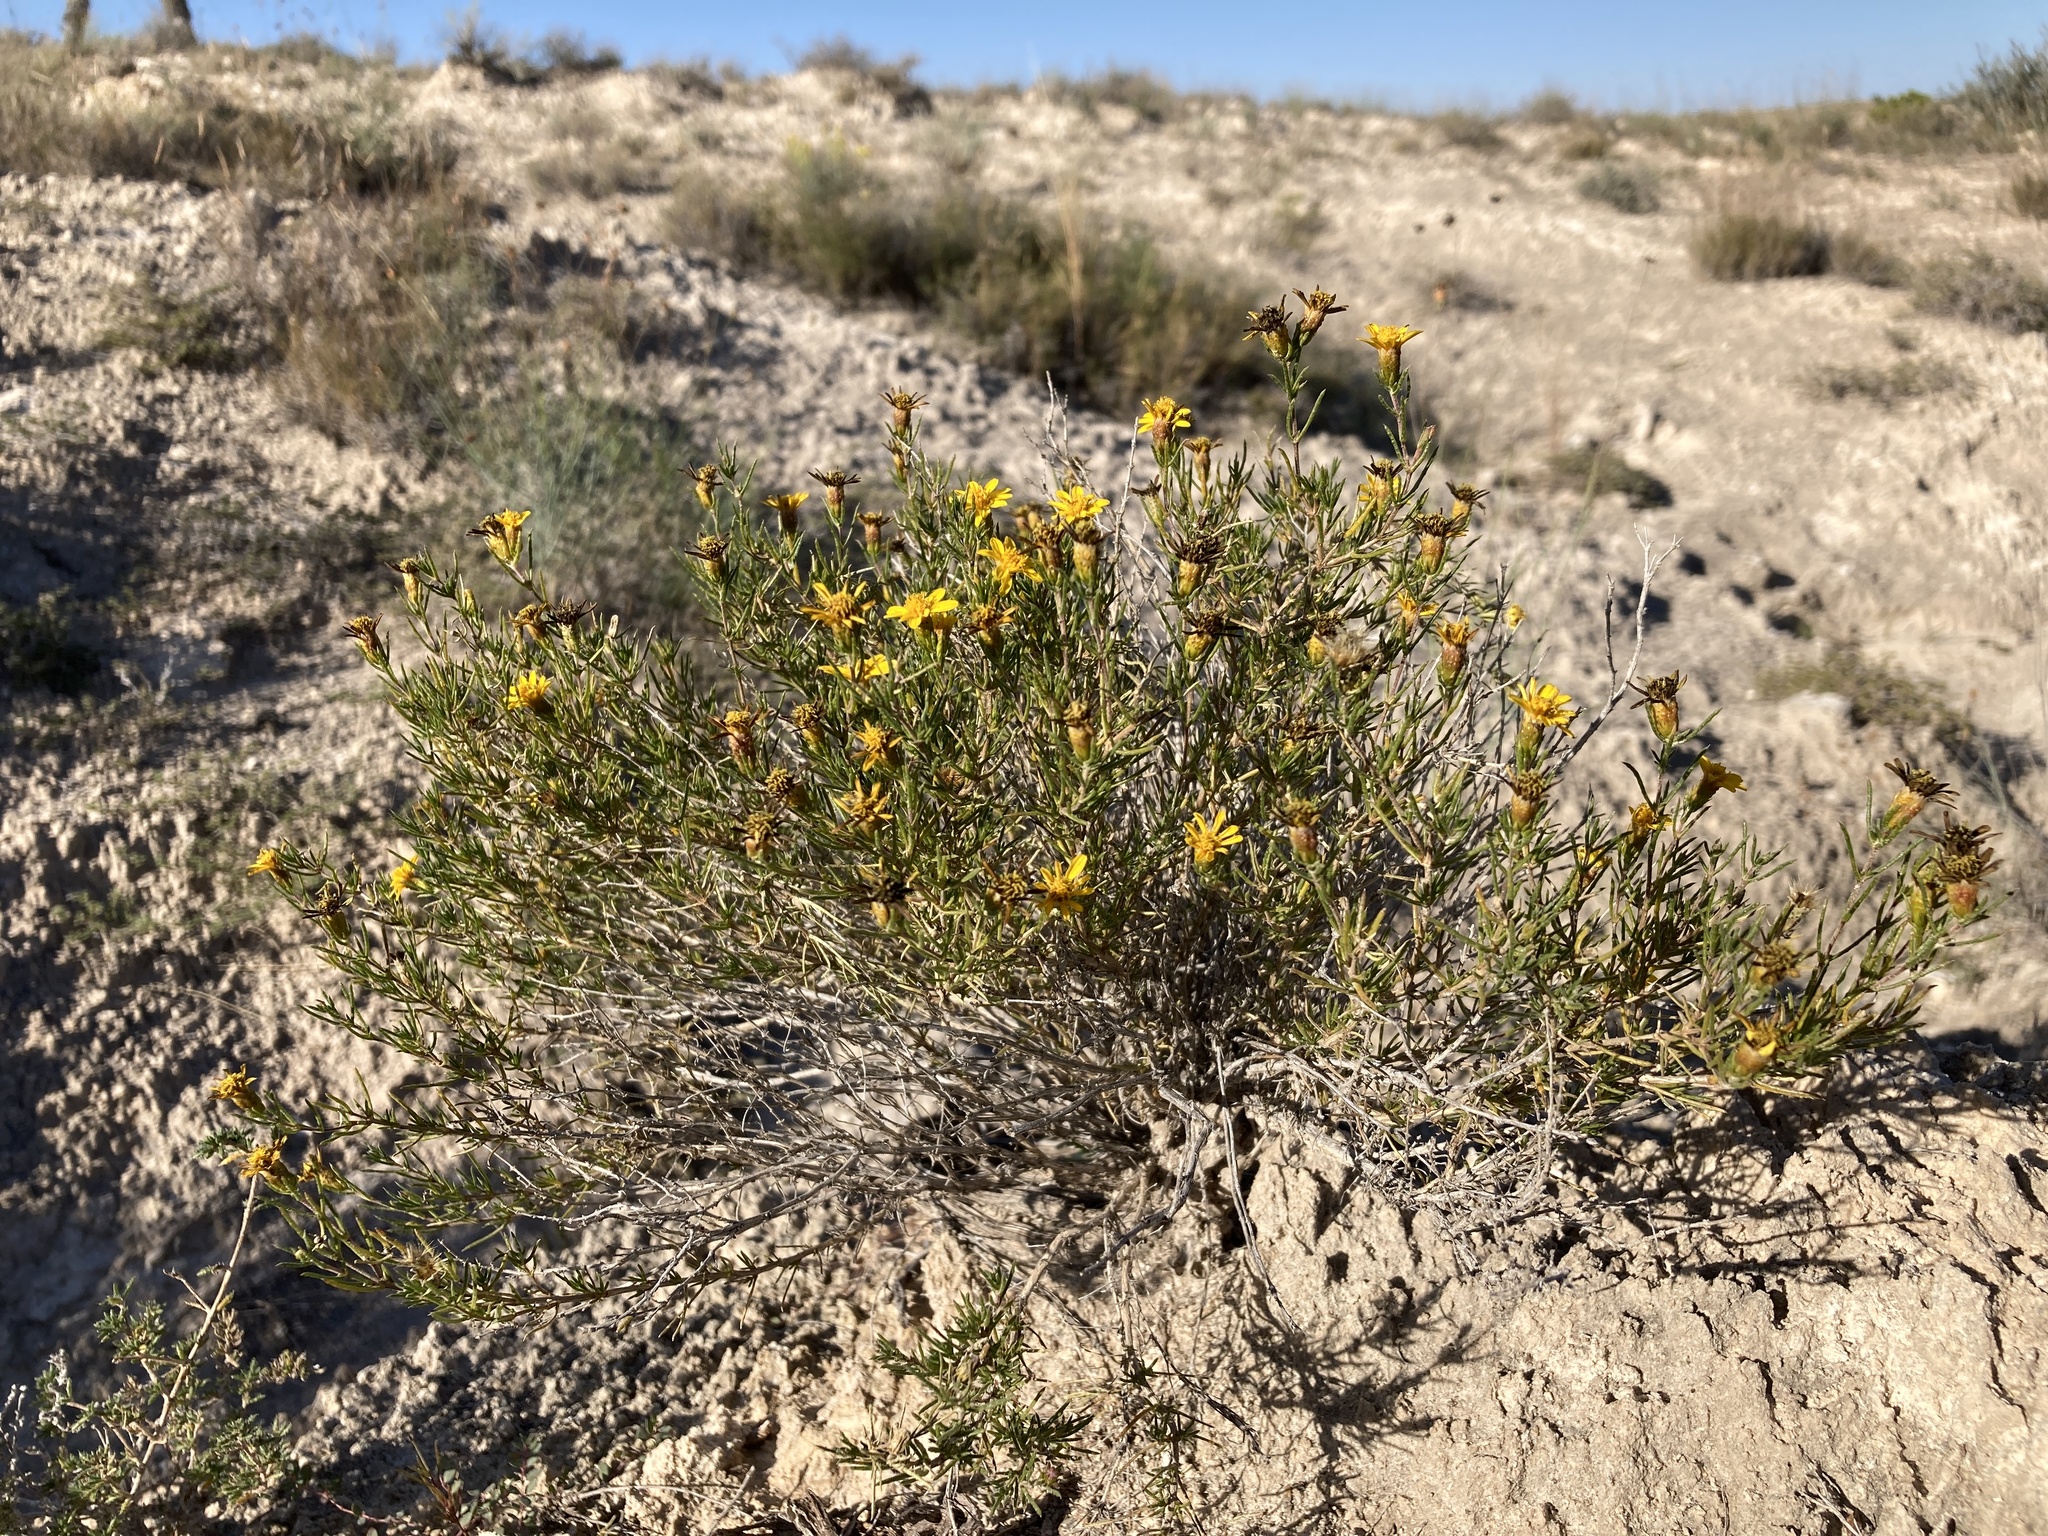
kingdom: Plantae
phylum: Tracheophyta
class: Magnoliopsida
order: Asterales
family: Asteraceae
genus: Thymophylla
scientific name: Thymophylla acerosa
